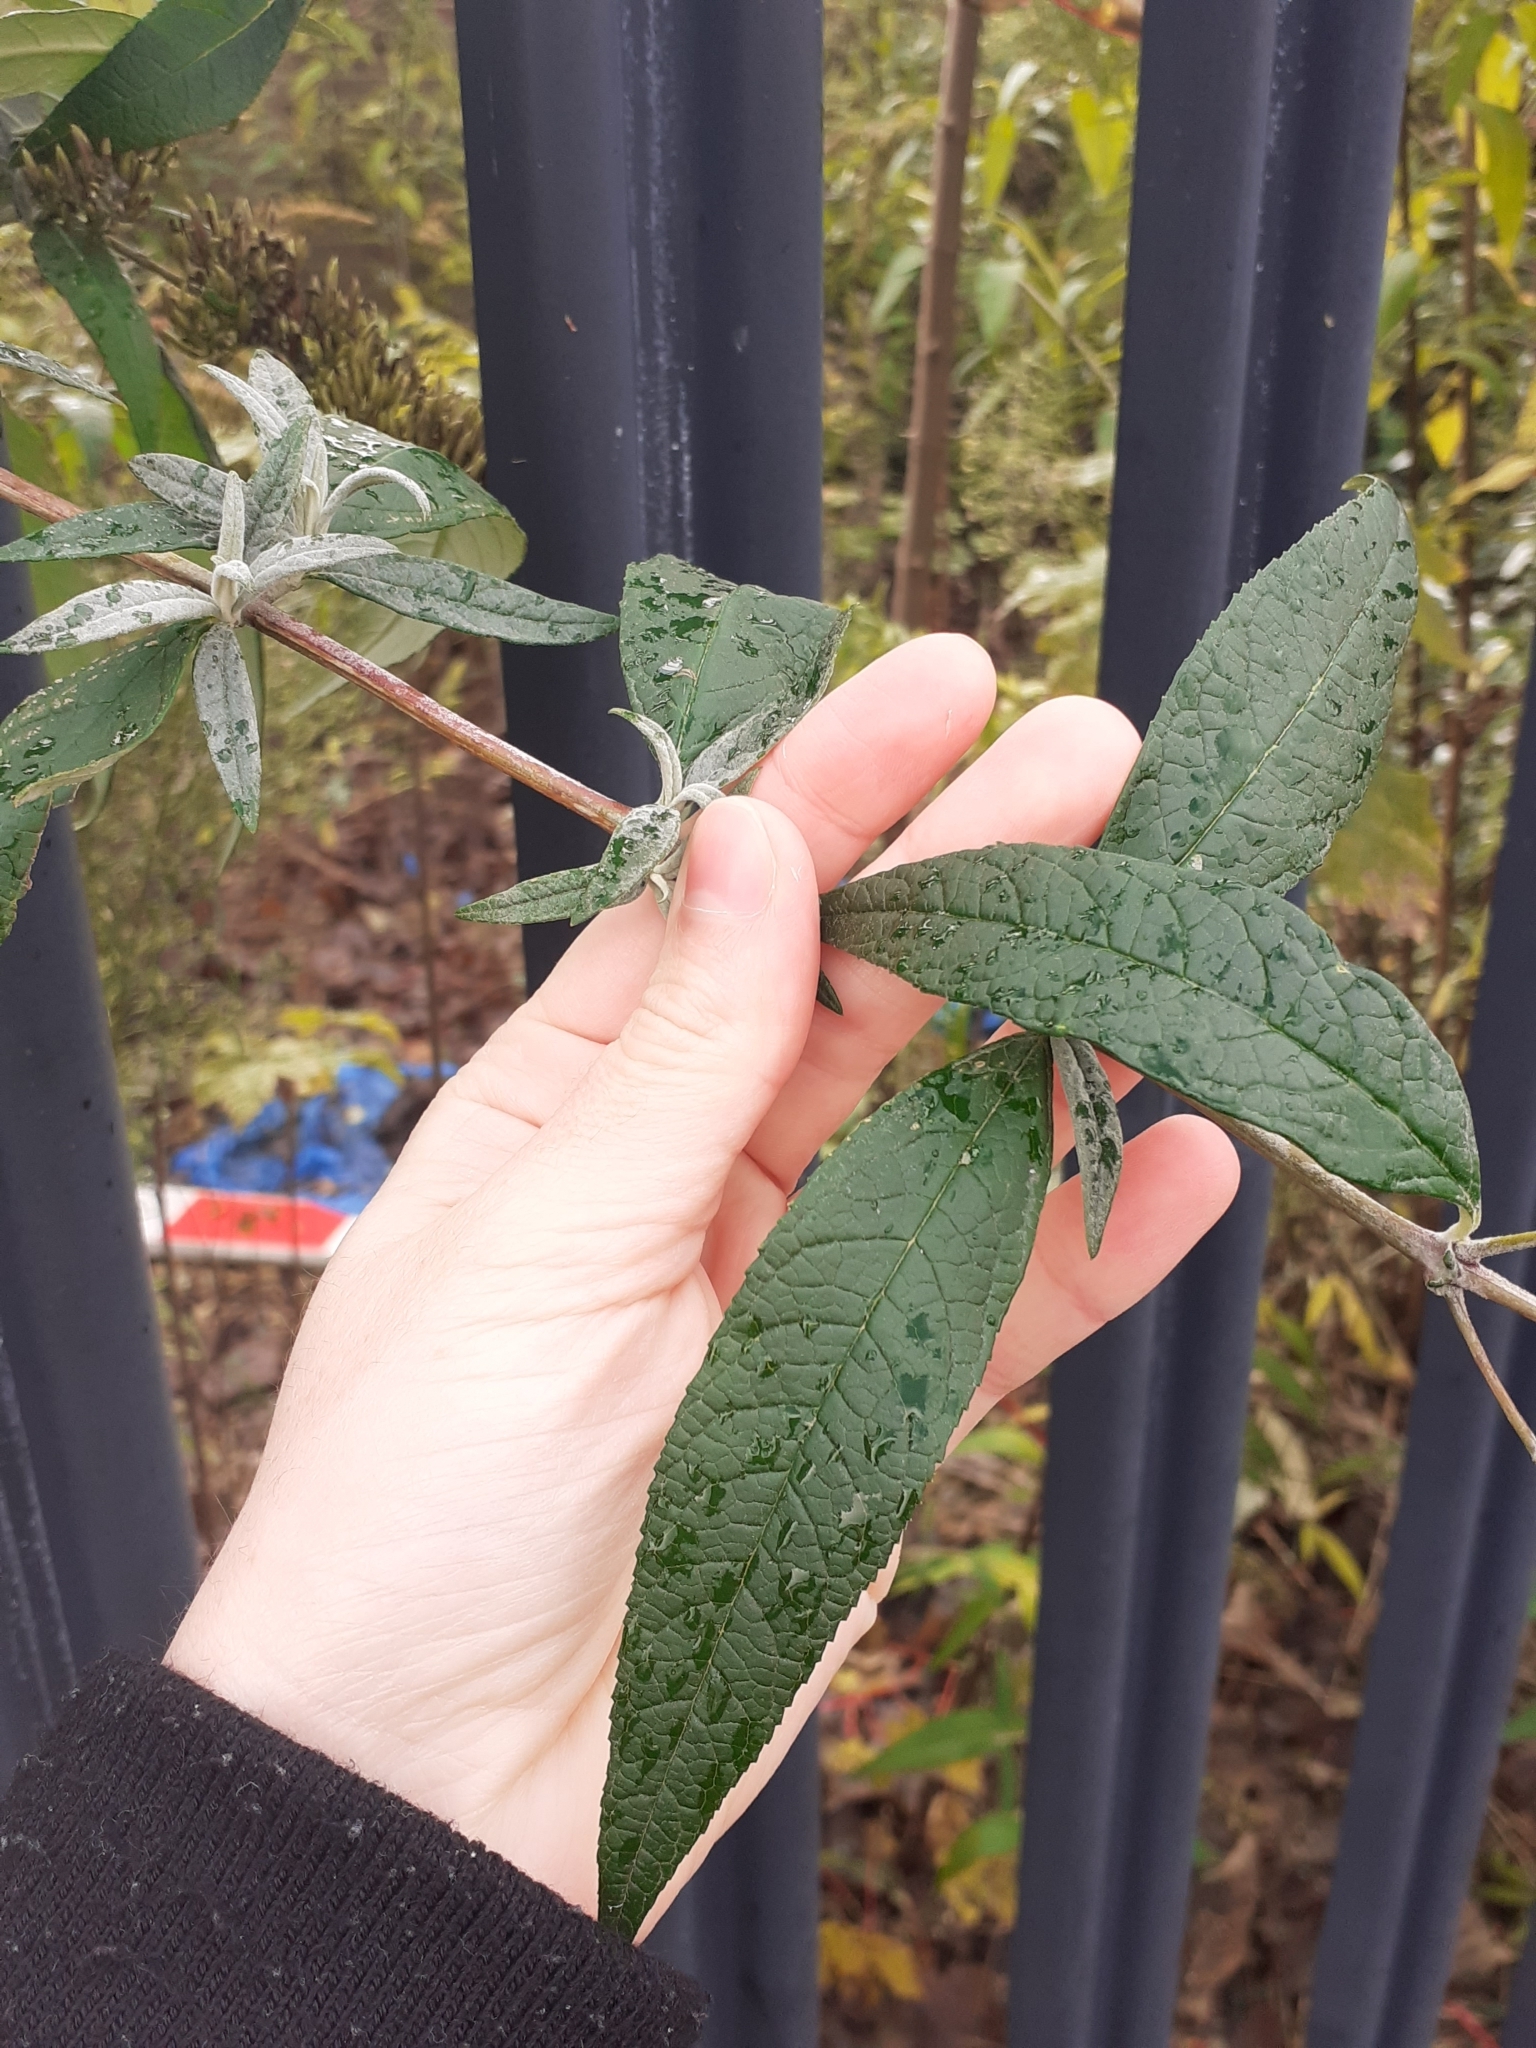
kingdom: Plantae
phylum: Tracheophyta
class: Magnoliopsida
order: Lamiales
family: Scrophulariaceae
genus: Buddleja
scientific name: Buddleja davidii
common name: Butterfly-bush
